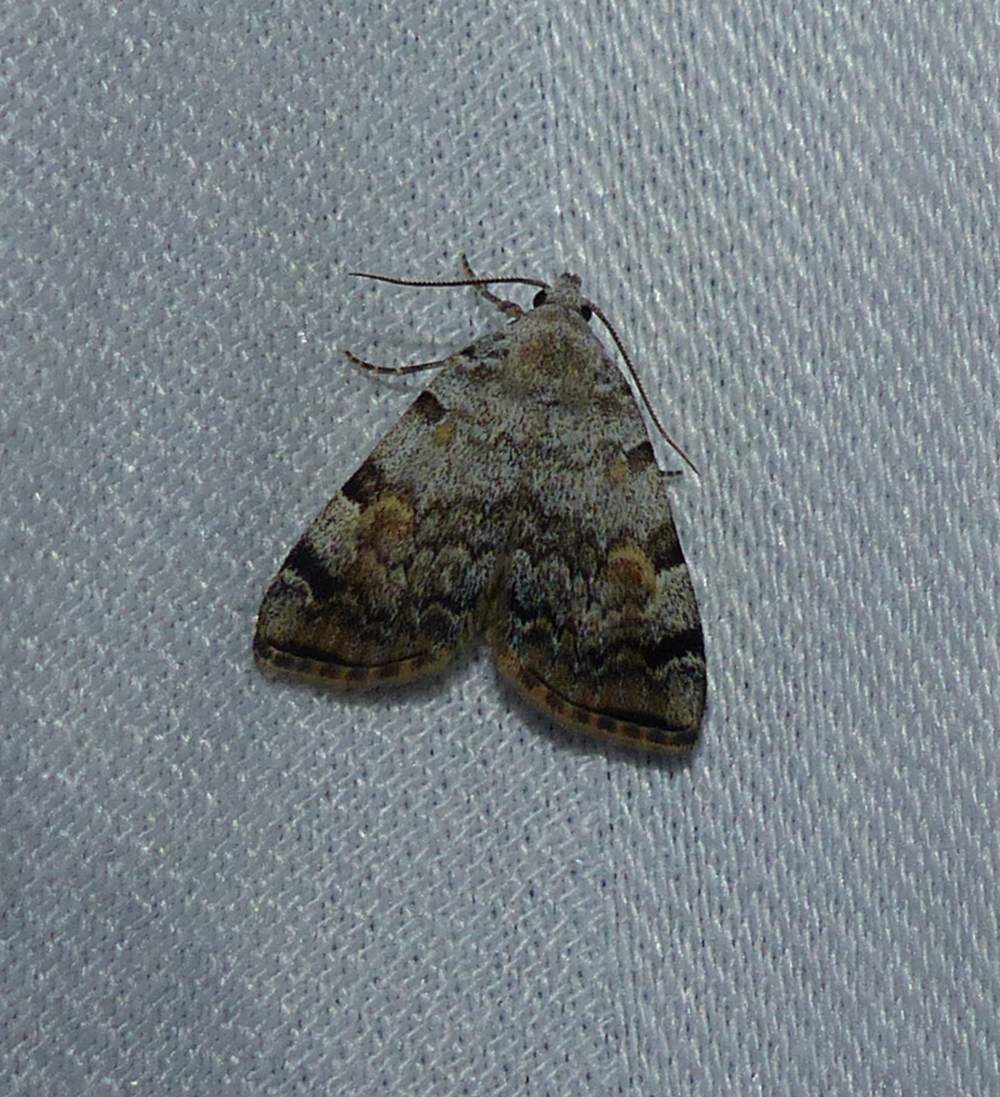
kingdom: Animalia
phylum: Arthropoda
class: Insecta
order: Lepidoptera
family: Erebidae
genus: Idia
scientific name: Idia americalis
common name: American idia moth
